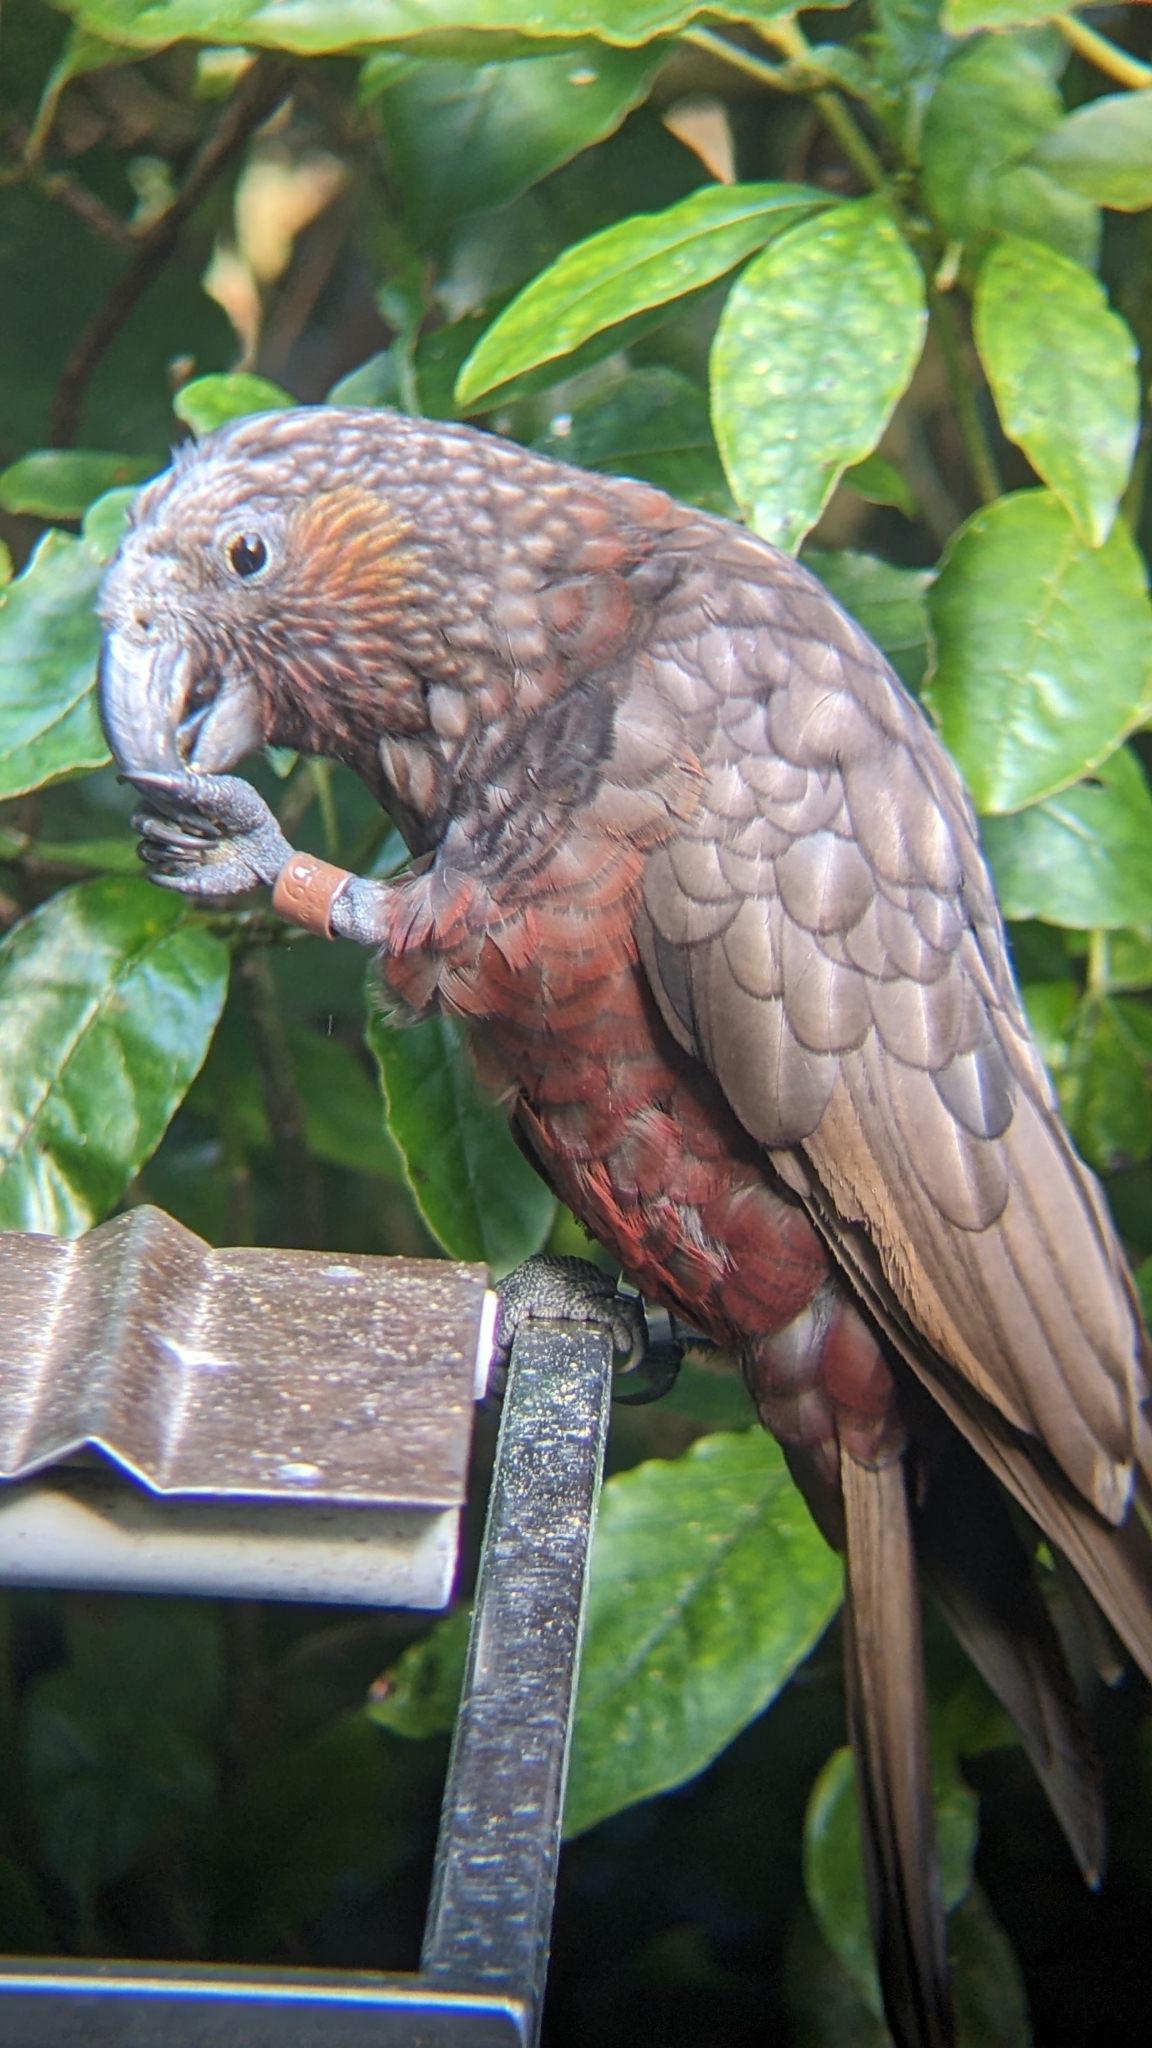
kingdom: Animalia
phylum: Chordata
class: Aves
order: Psittaciformes
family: Psittacidae
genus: Nestor
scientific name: Nestor meridionalis
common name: New zealand kaka
